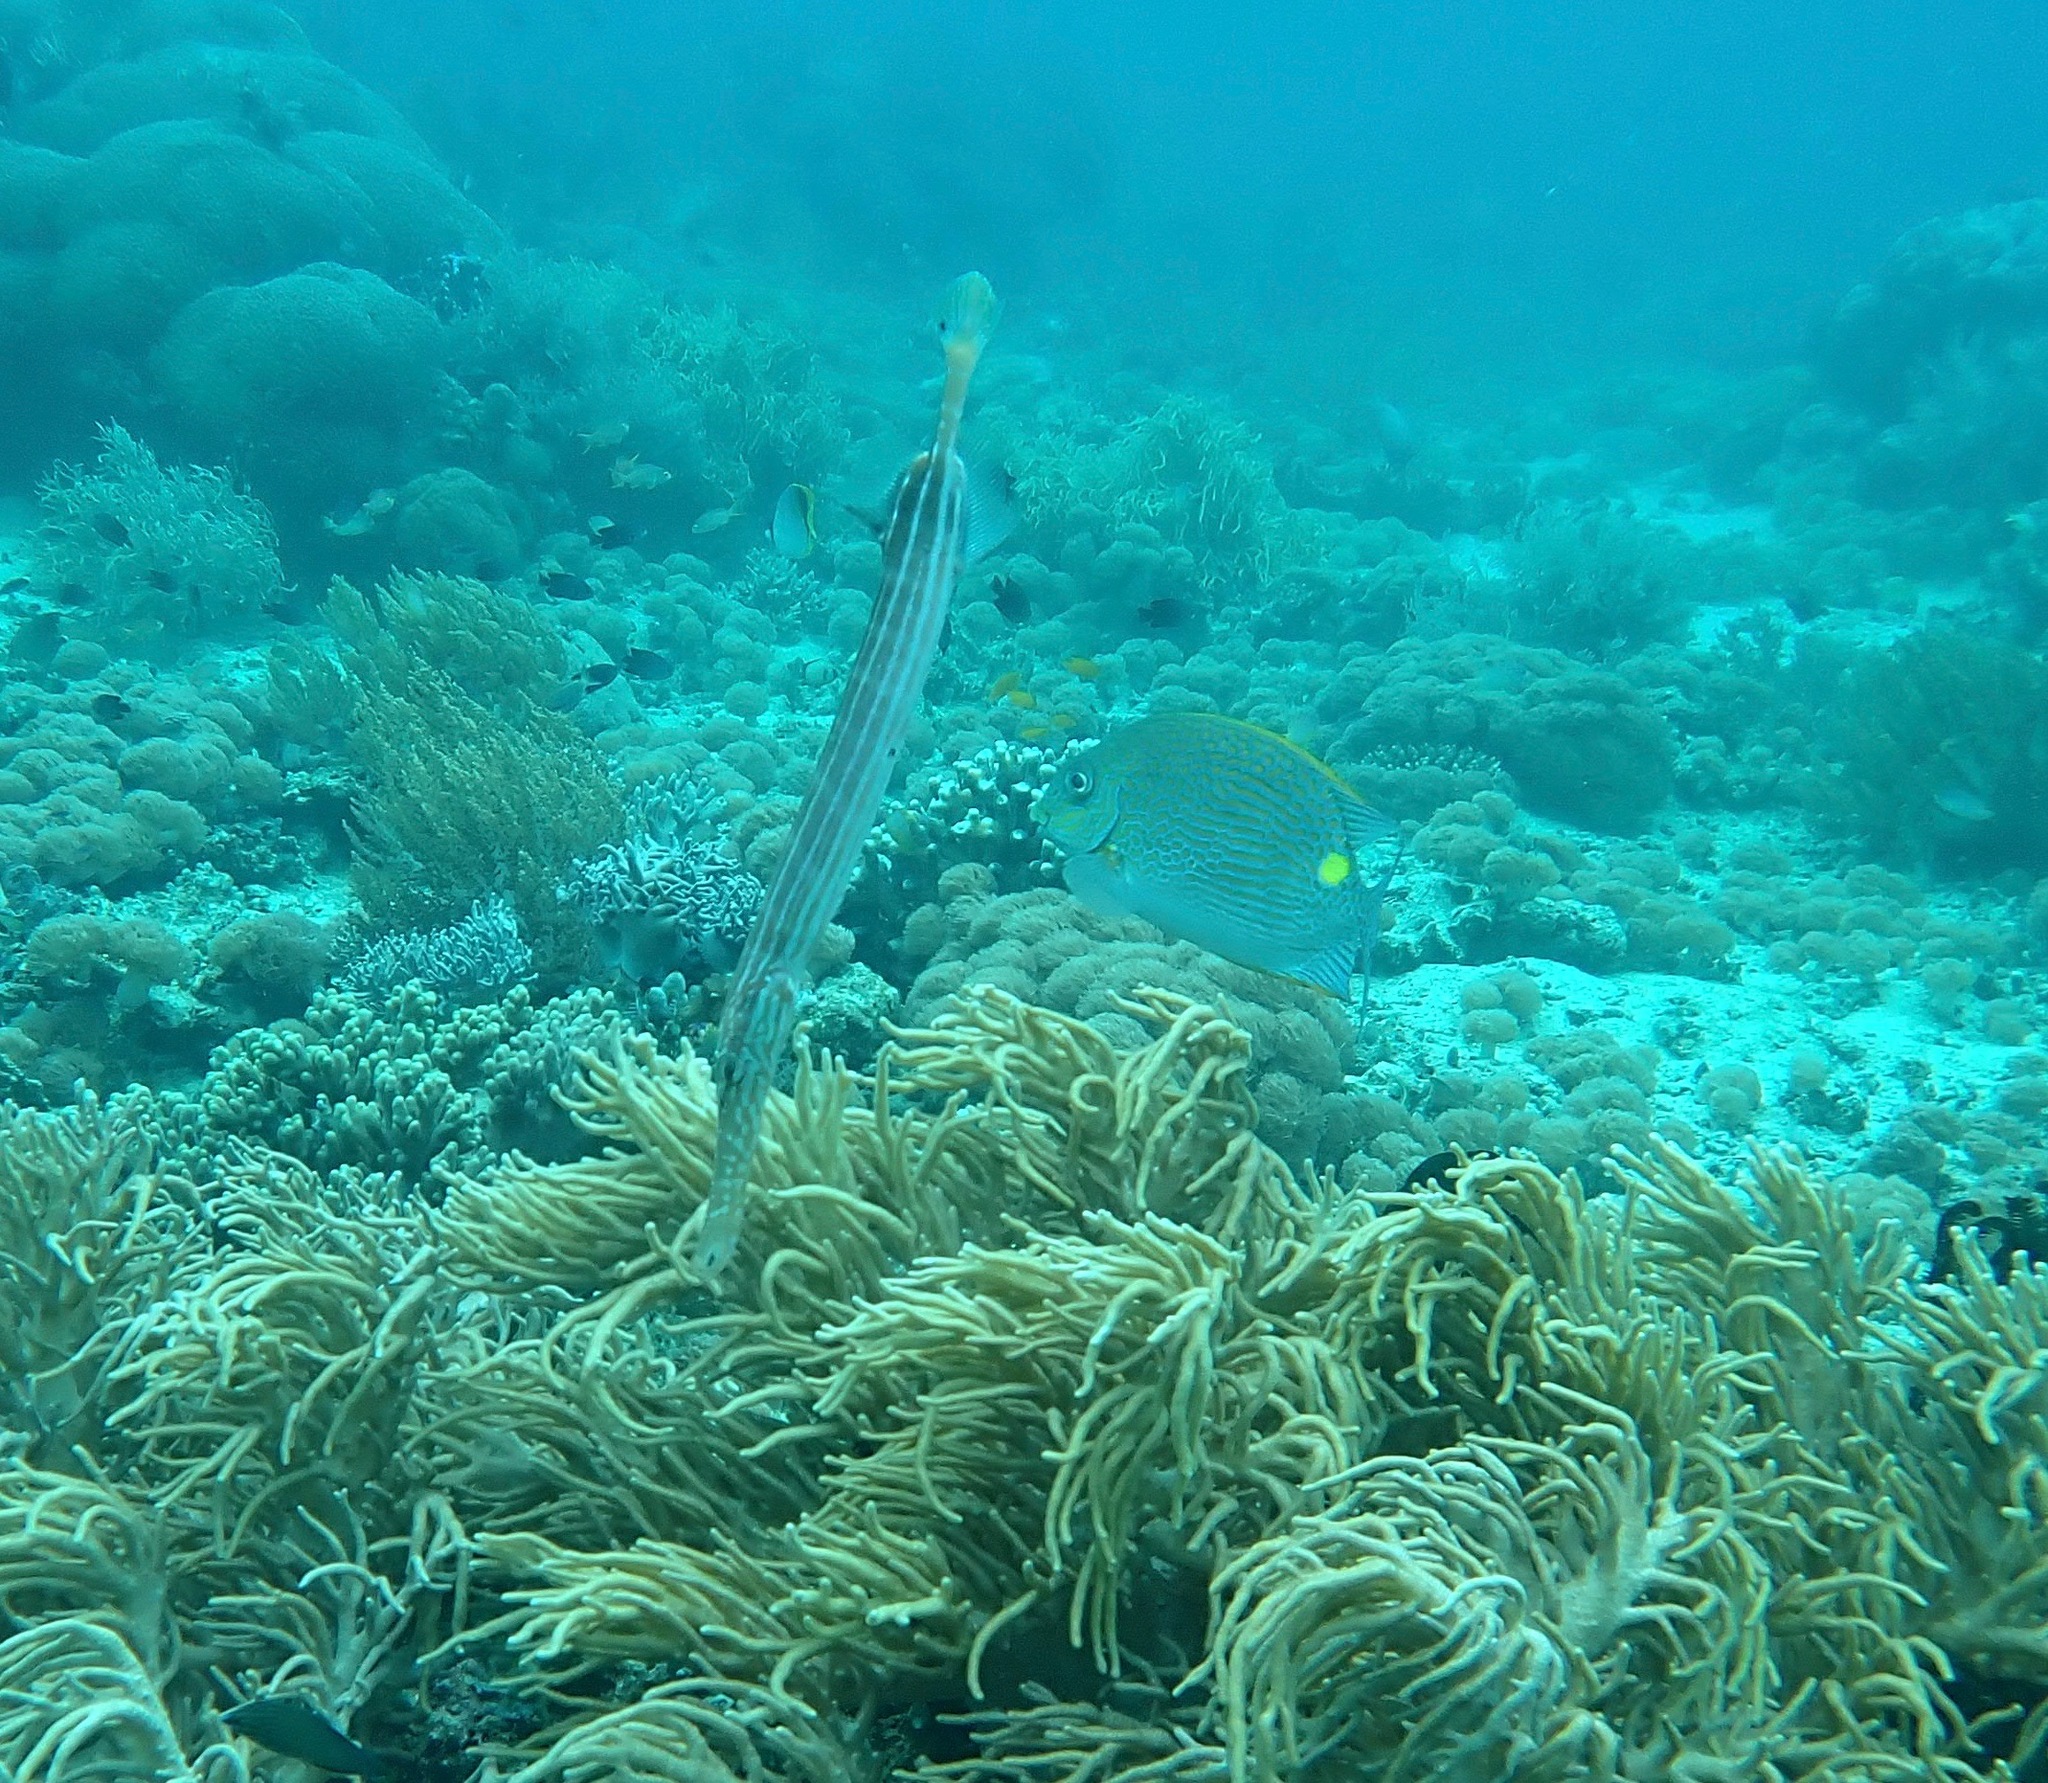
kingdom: Animalia
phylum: Chordata
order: Syngnathiformes
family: Aulostomidae
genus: Aulostomus
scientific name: Aulostomus chinensis
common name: Chinese trumpetfish
